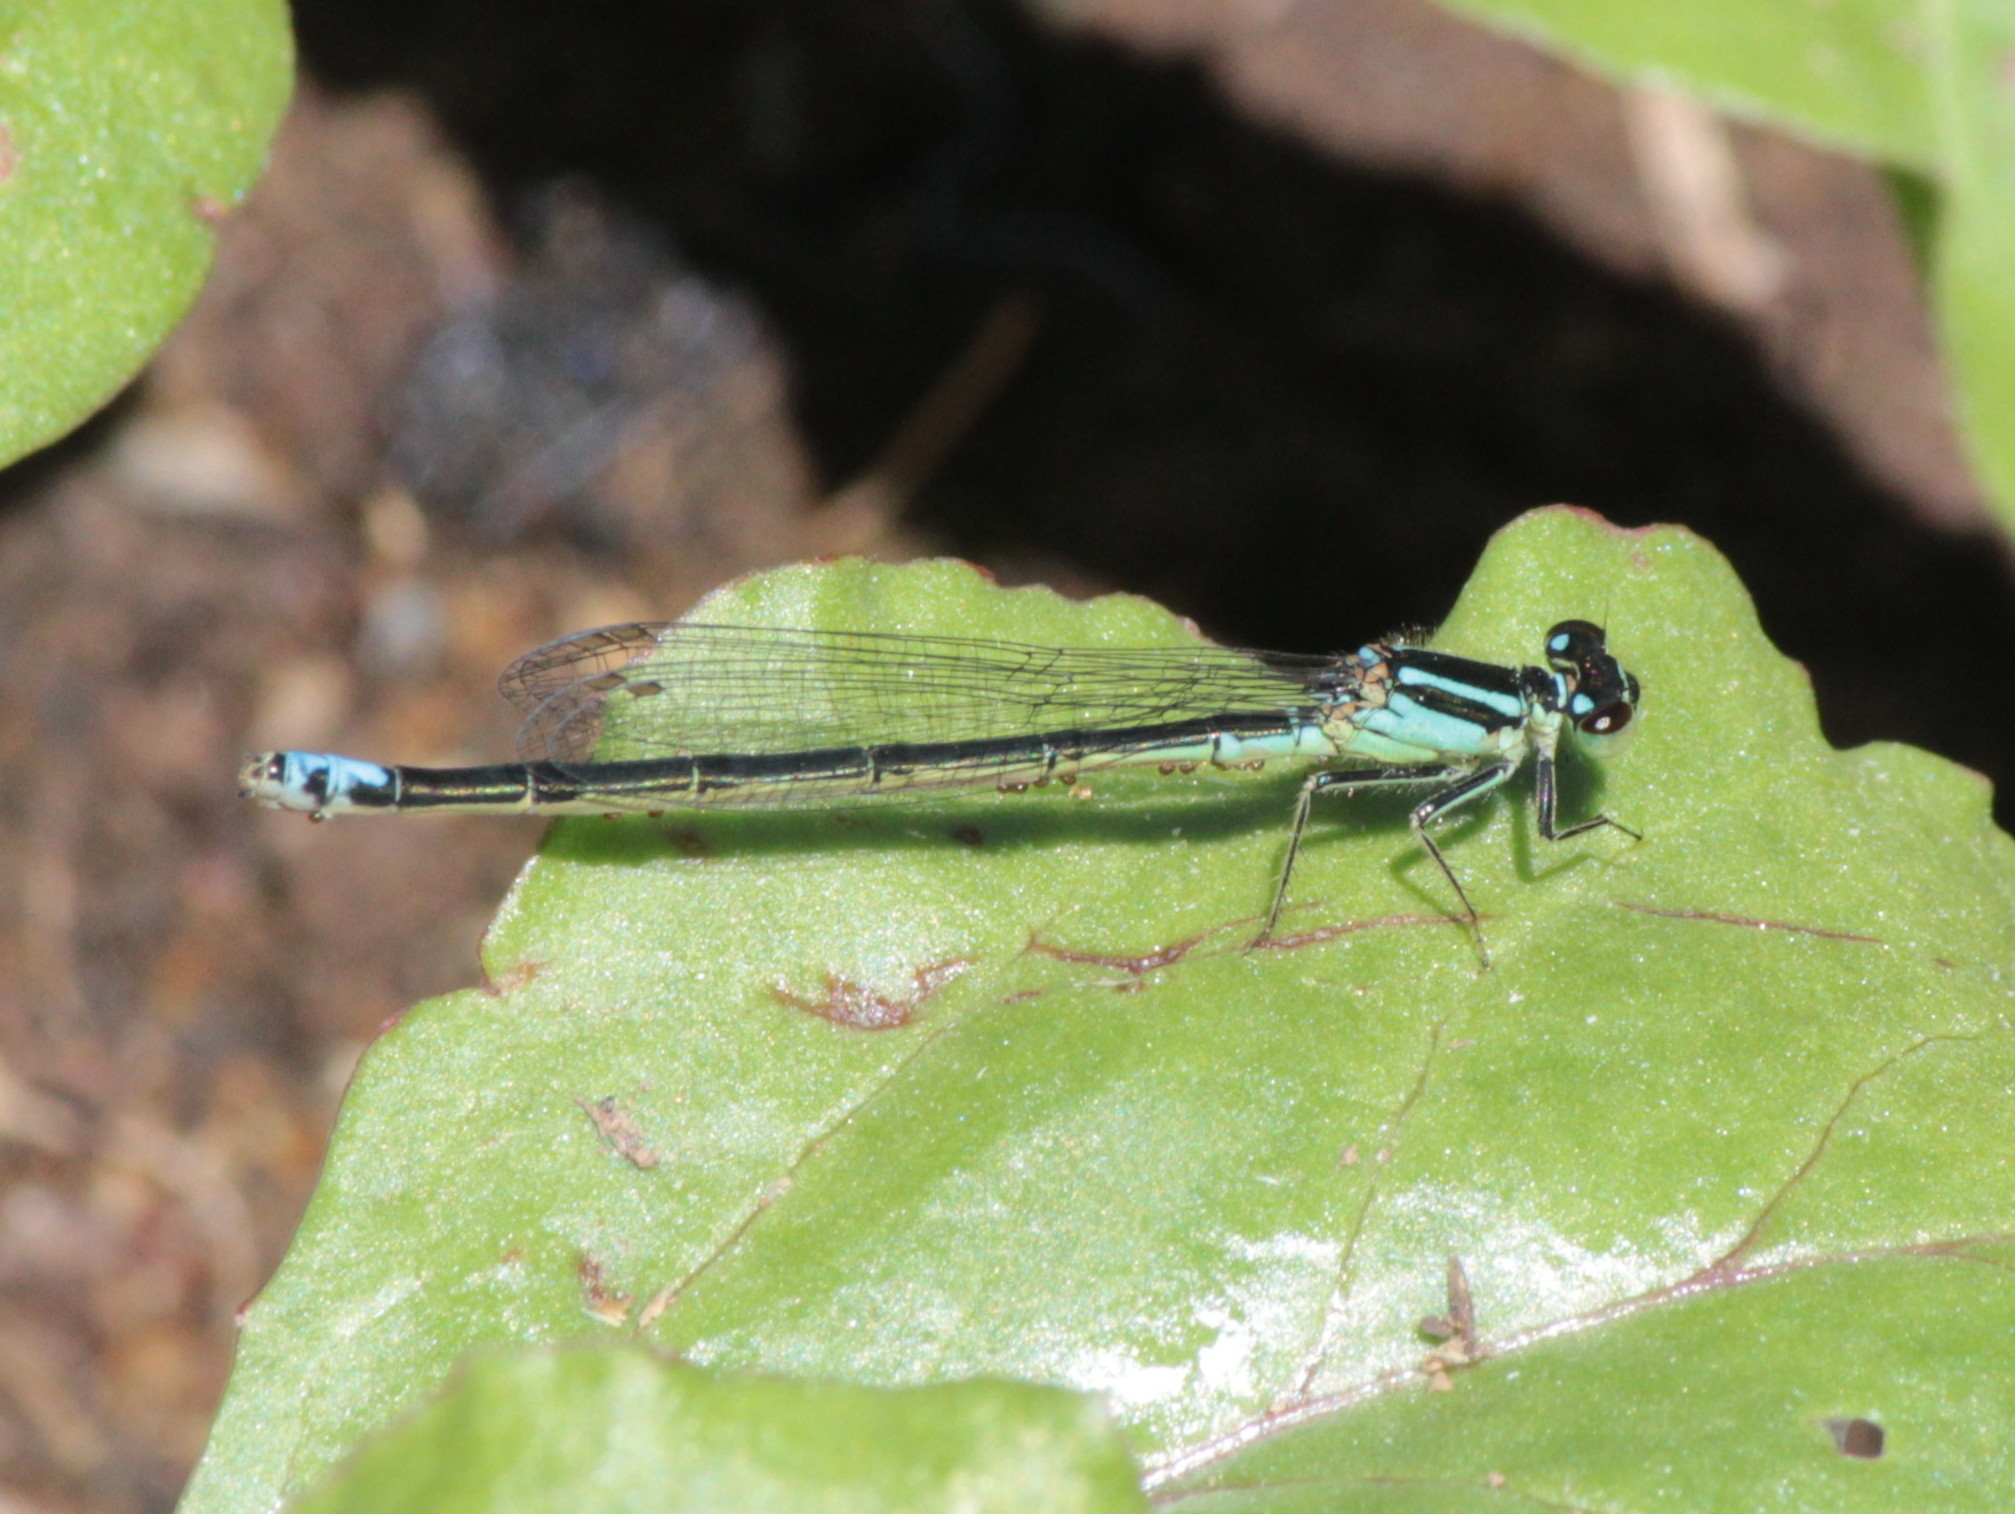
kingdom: Animalia
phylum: Arthropoda
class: Insecta
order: Odonata
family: Coenagrionidae
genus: Ischnura
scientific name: Ischnura verticalis
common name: Eastern forktail
